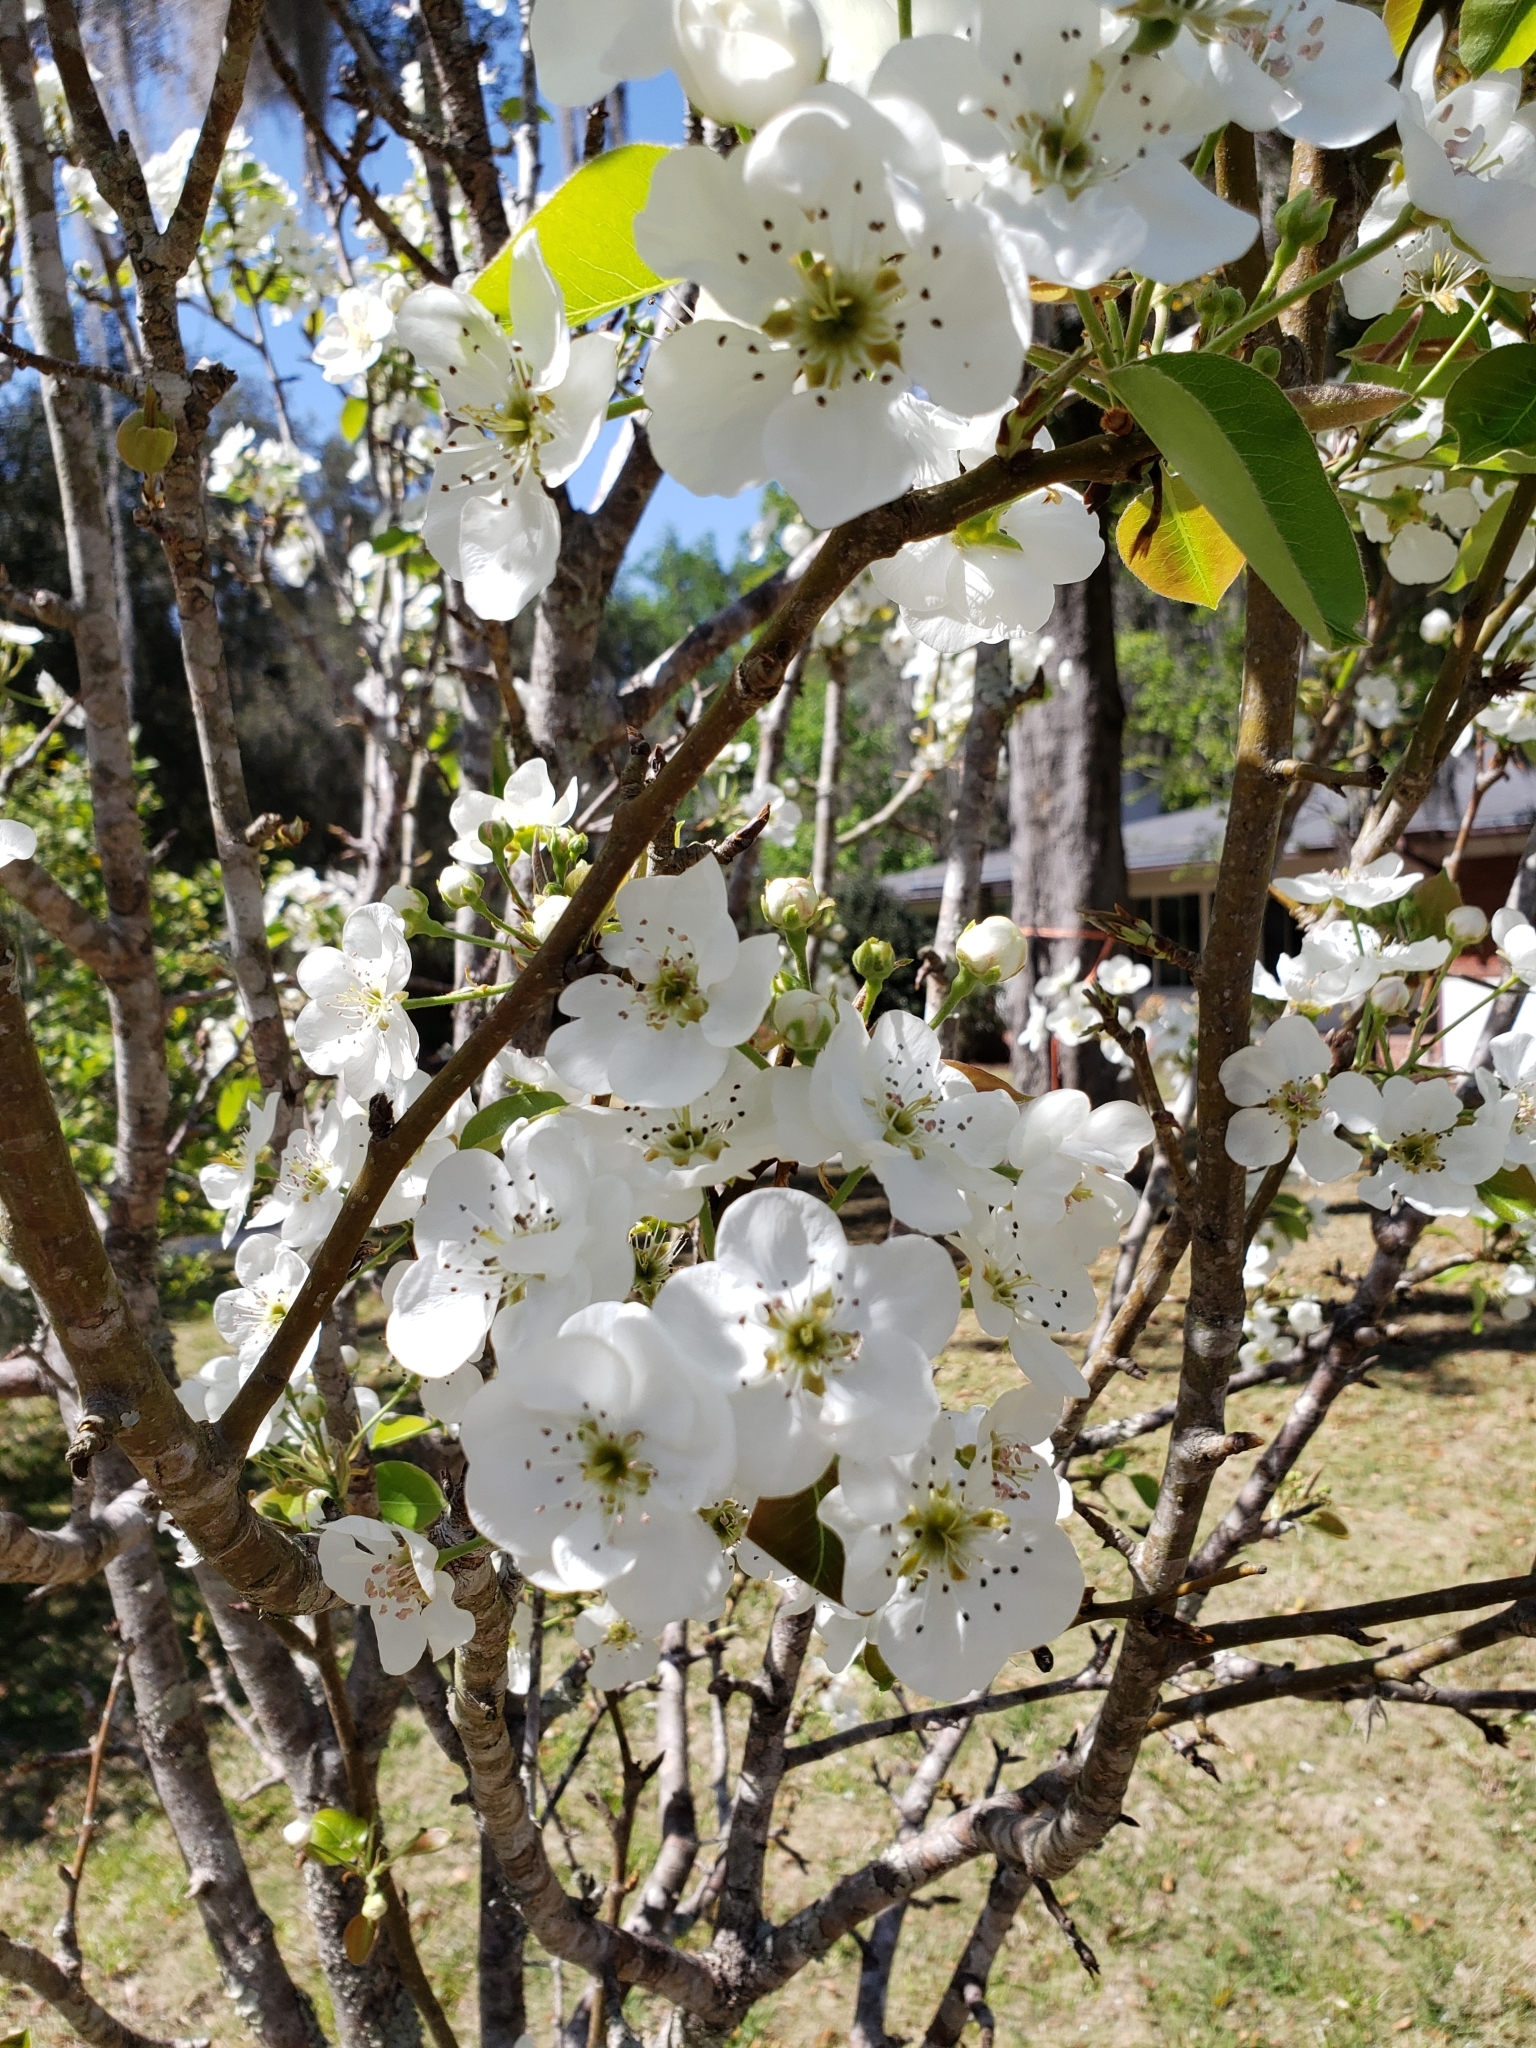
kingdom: Plantae
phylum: Tracheophyta
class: Magnoliopsida
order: Rosales
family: Rosaceae
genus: Pyrus
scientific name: Pyrus calleryana
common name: Callery pear
